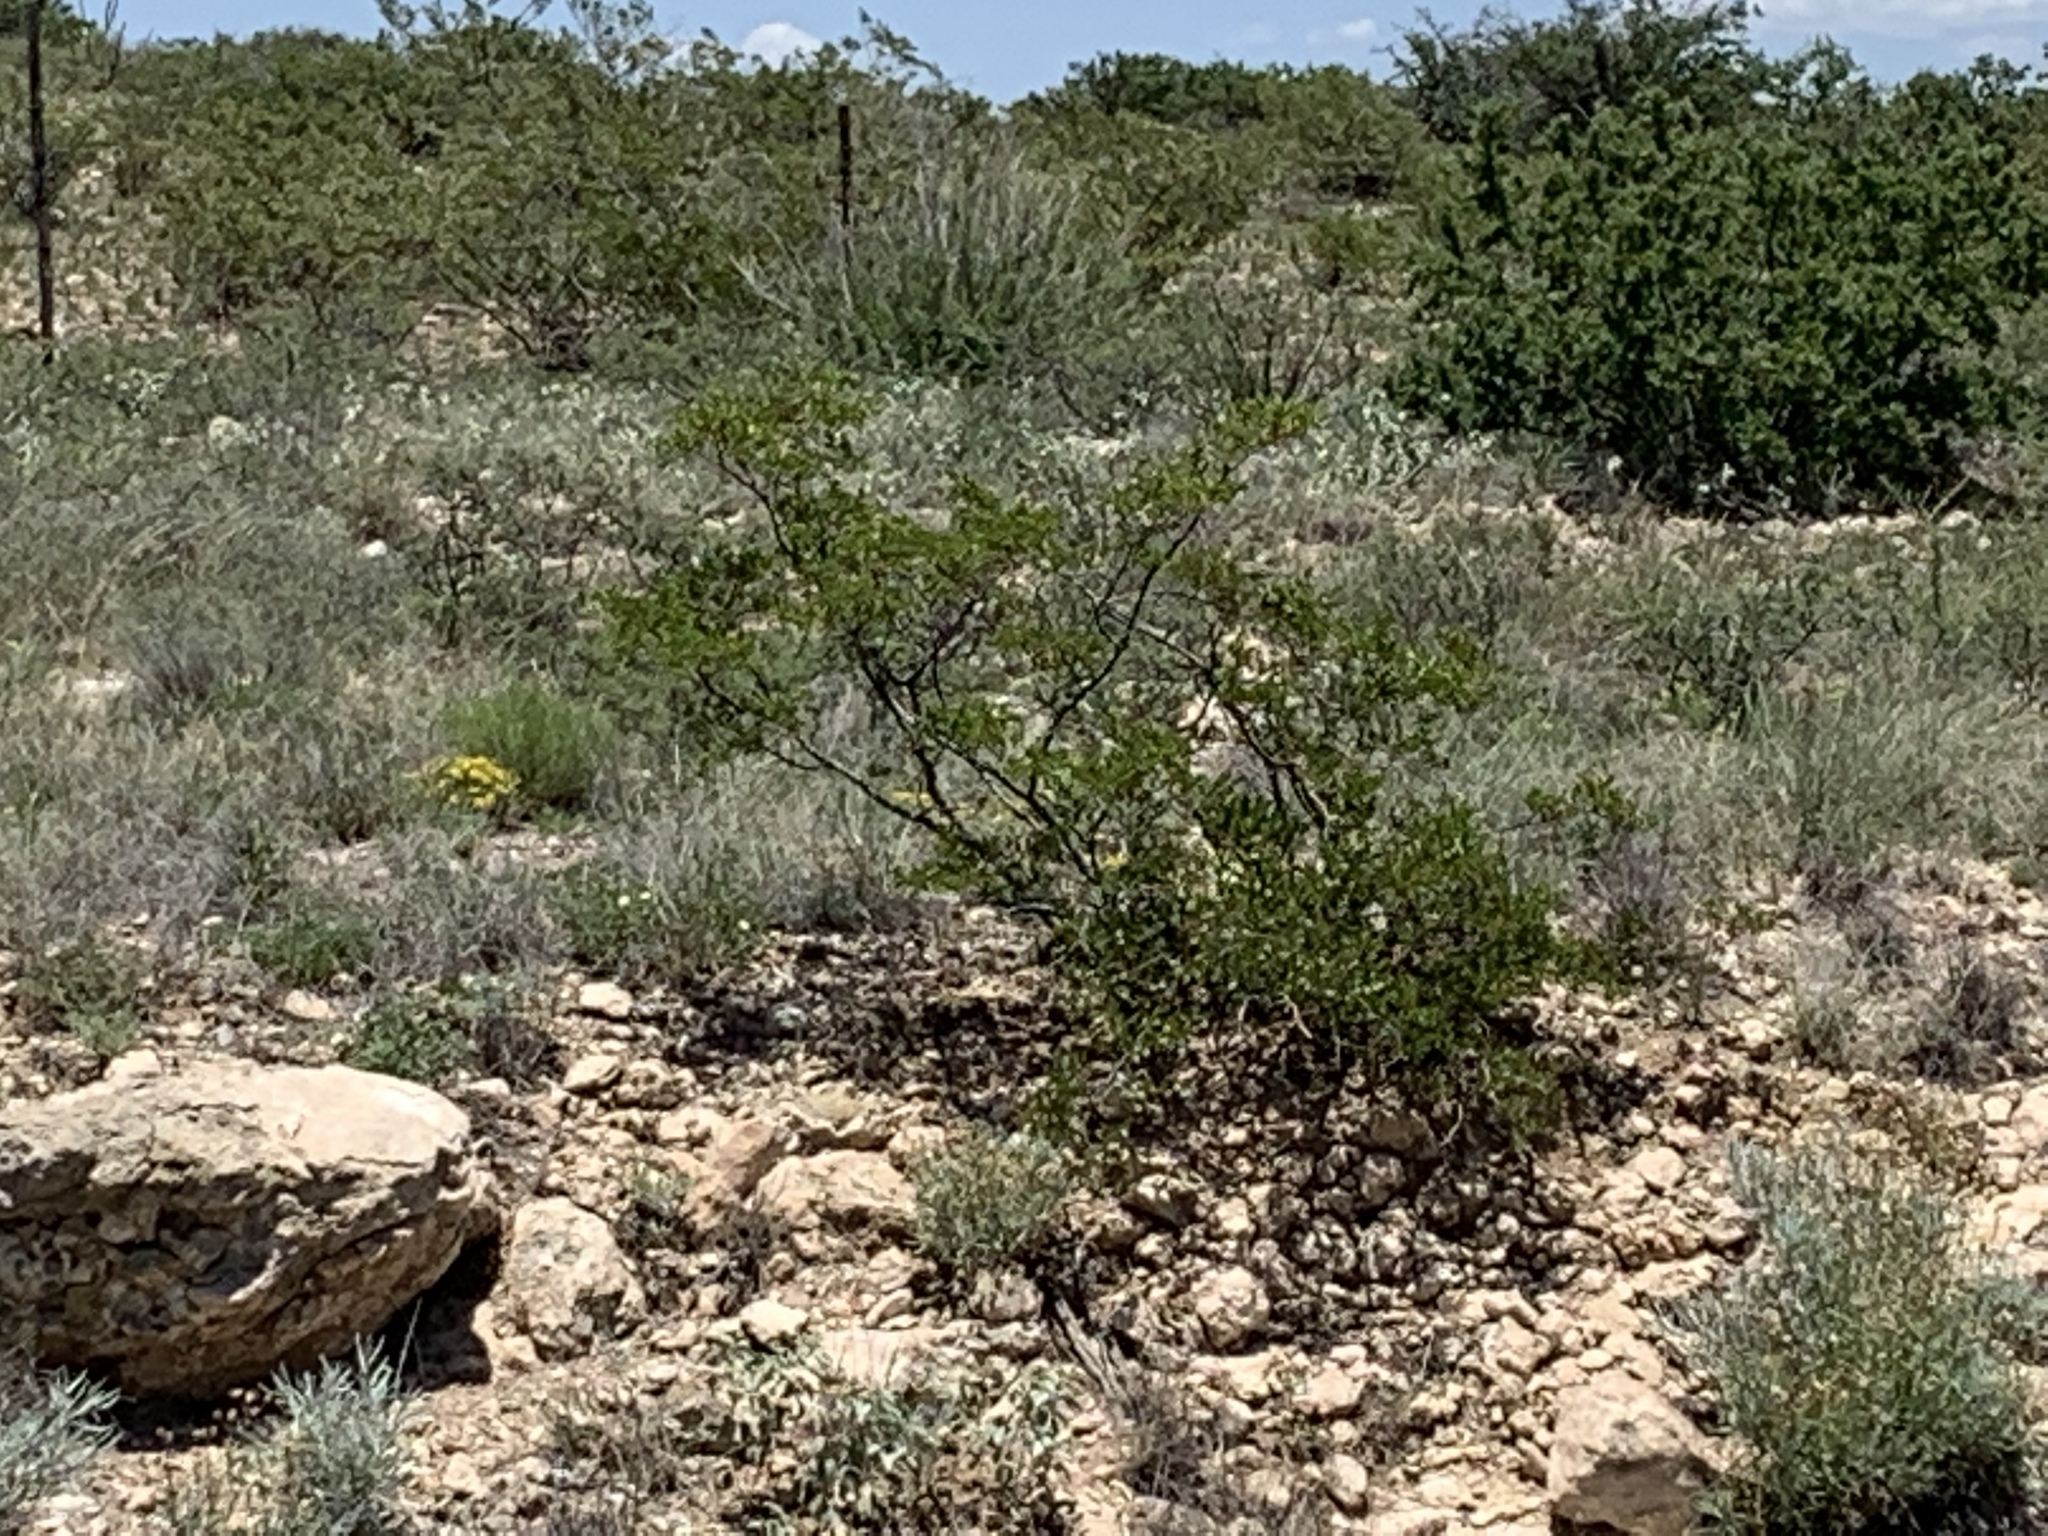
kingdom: Plantae
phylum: Tracheophyta
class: Magnoliopsida
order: Zygophyllales
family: Zygophyllaceae
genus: Larrea
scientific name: Larrea tridentata
